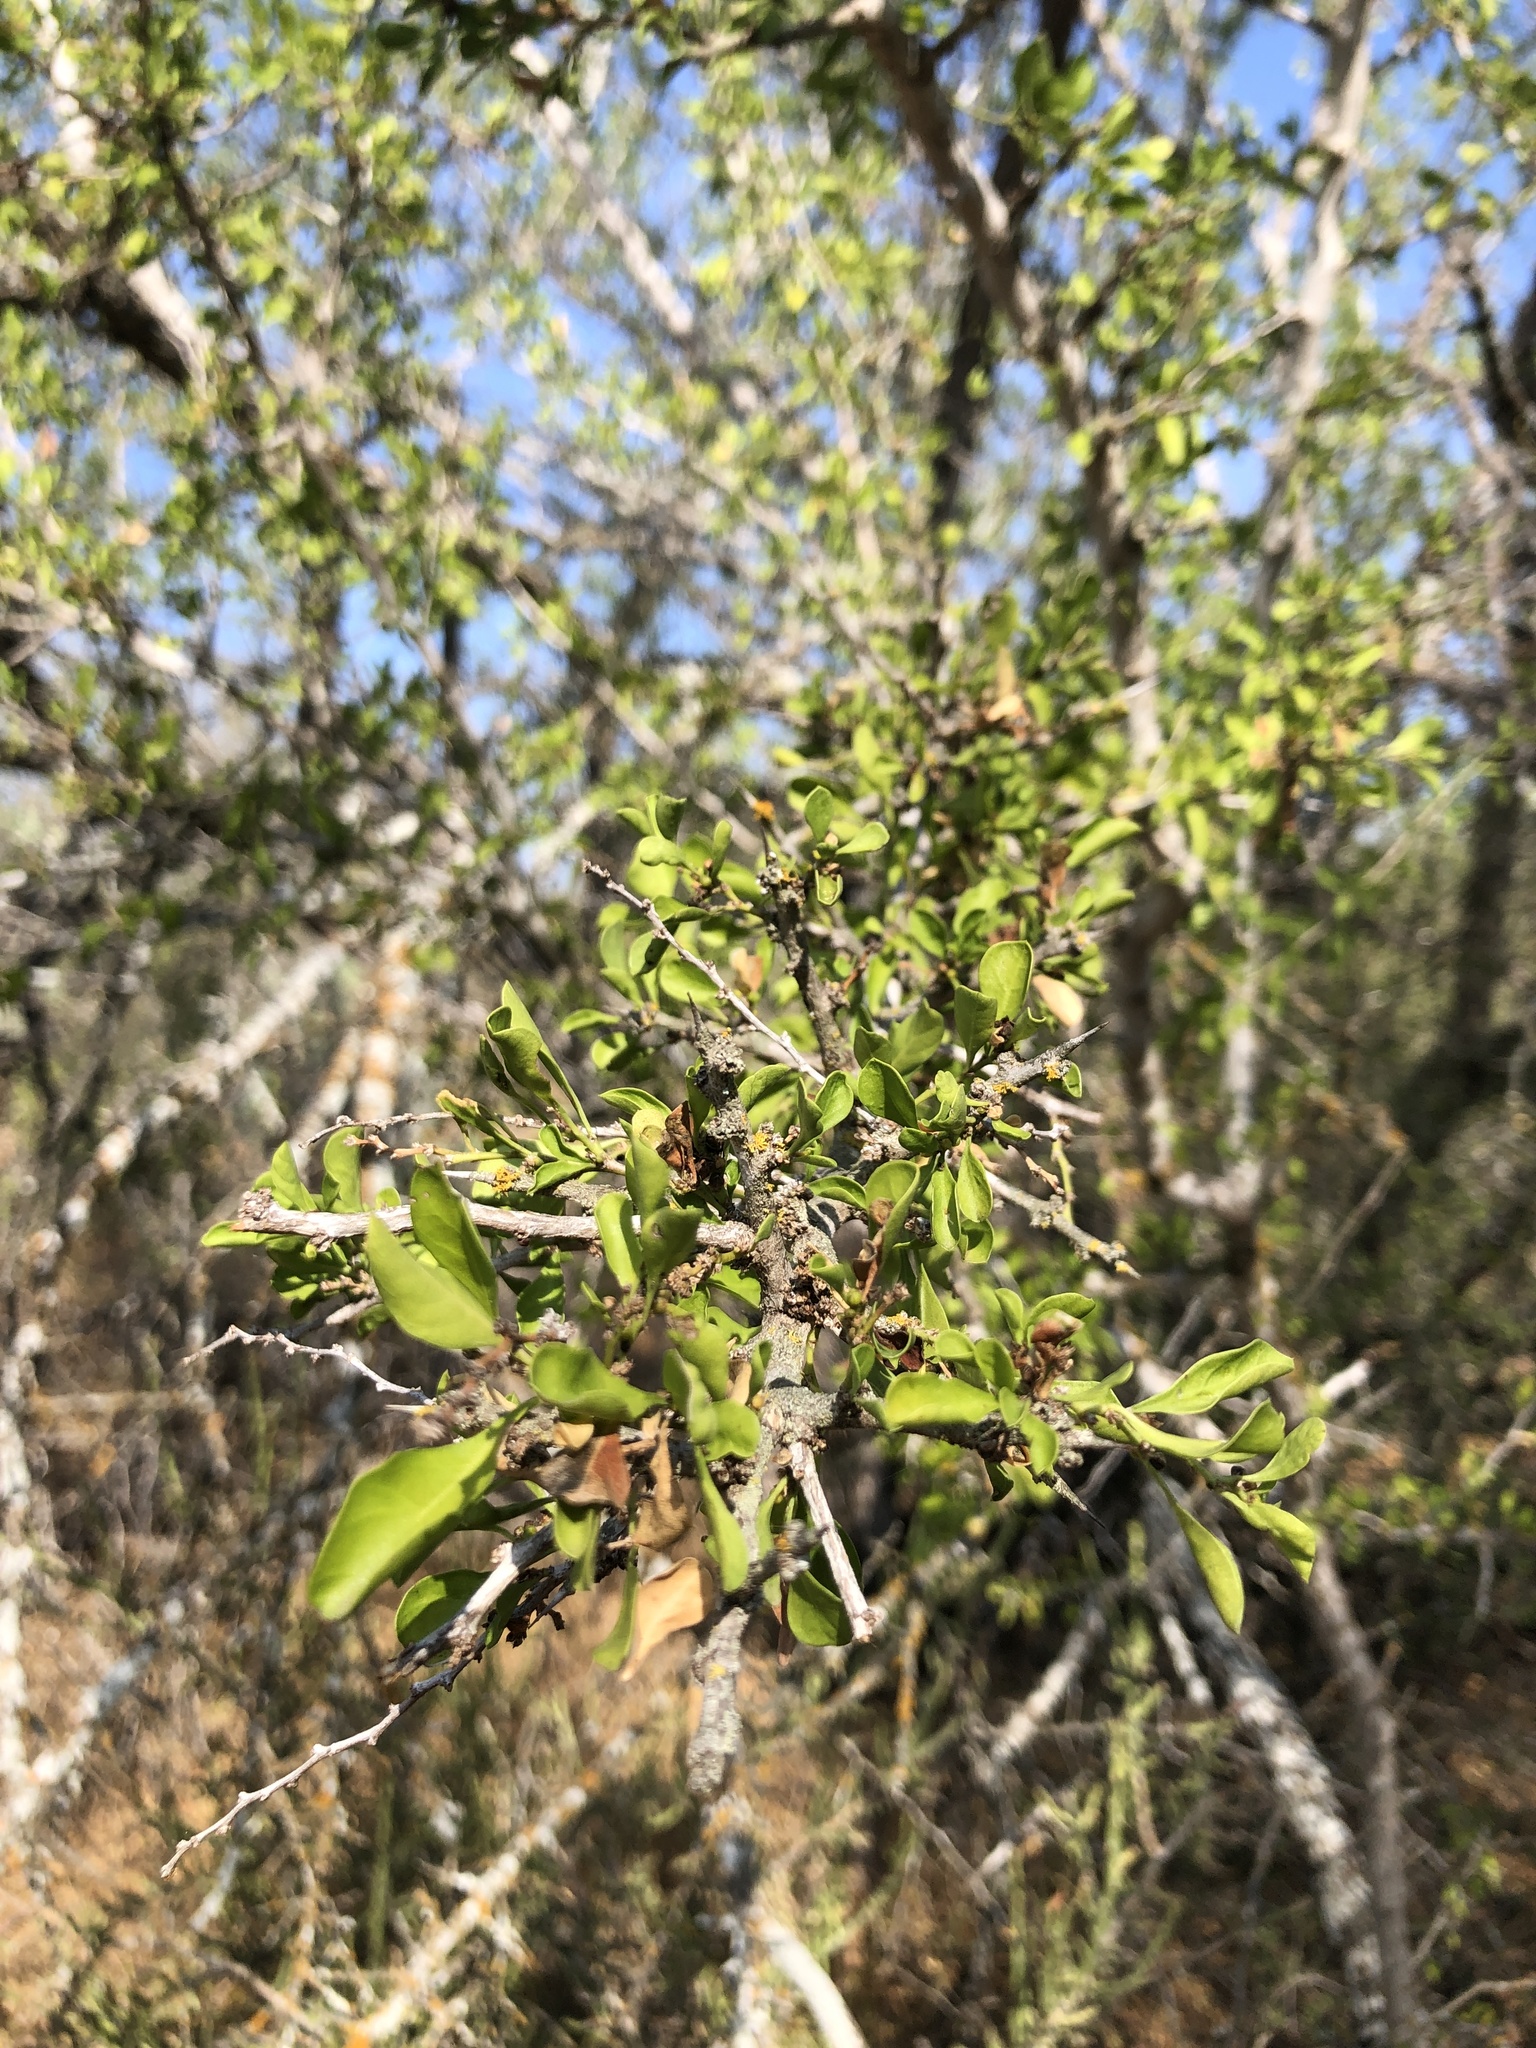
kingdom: Plantae
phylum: Tracheophyta
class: Magnoliopsida
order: Rosales
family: Rhamnaceae
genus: Condalia
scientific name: Condalia hookeri
